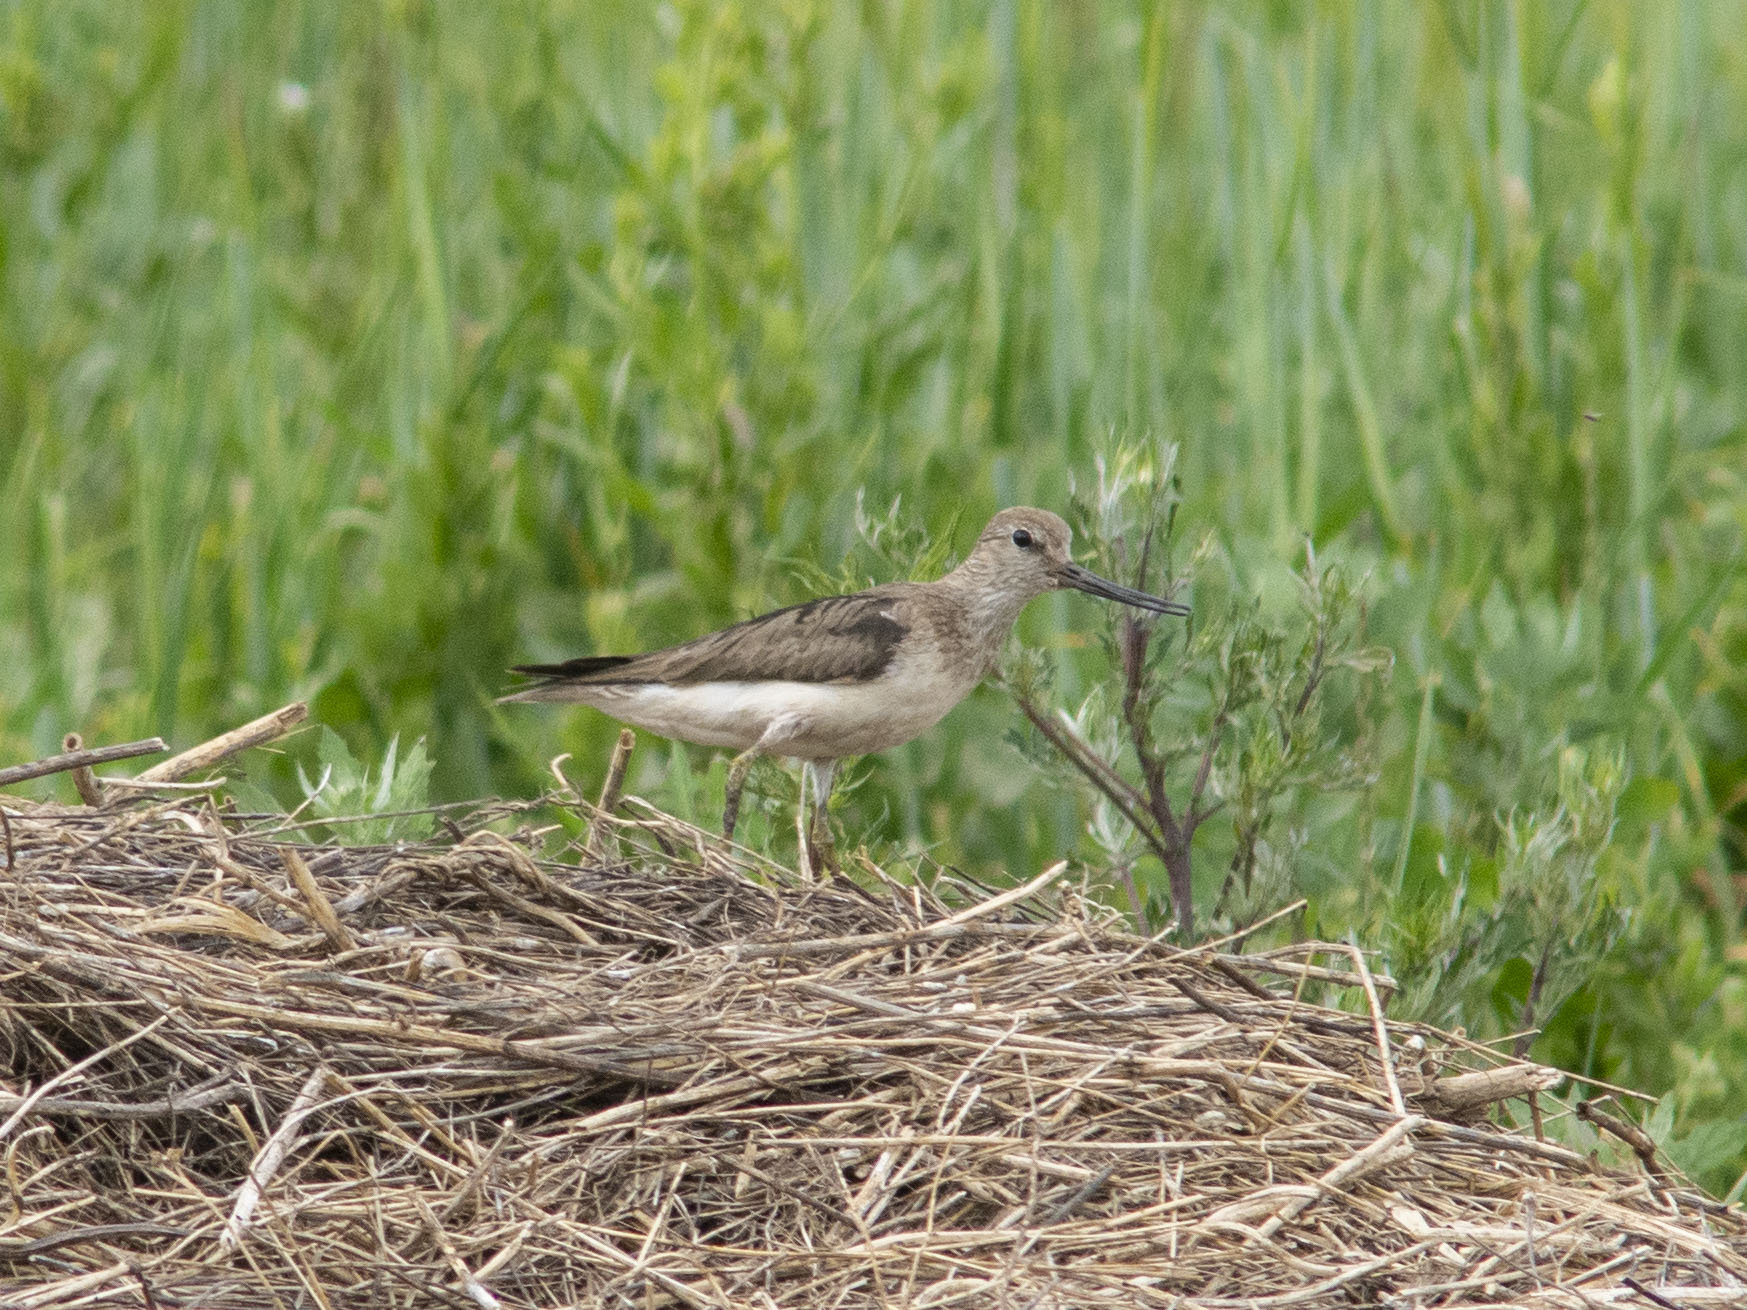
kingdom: Animalia
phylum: Chordata
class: Aves
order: Charadriiformes
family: Scolopacidae
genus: Xenus
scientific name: Xenus cinereus
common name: Terek sandpiper
